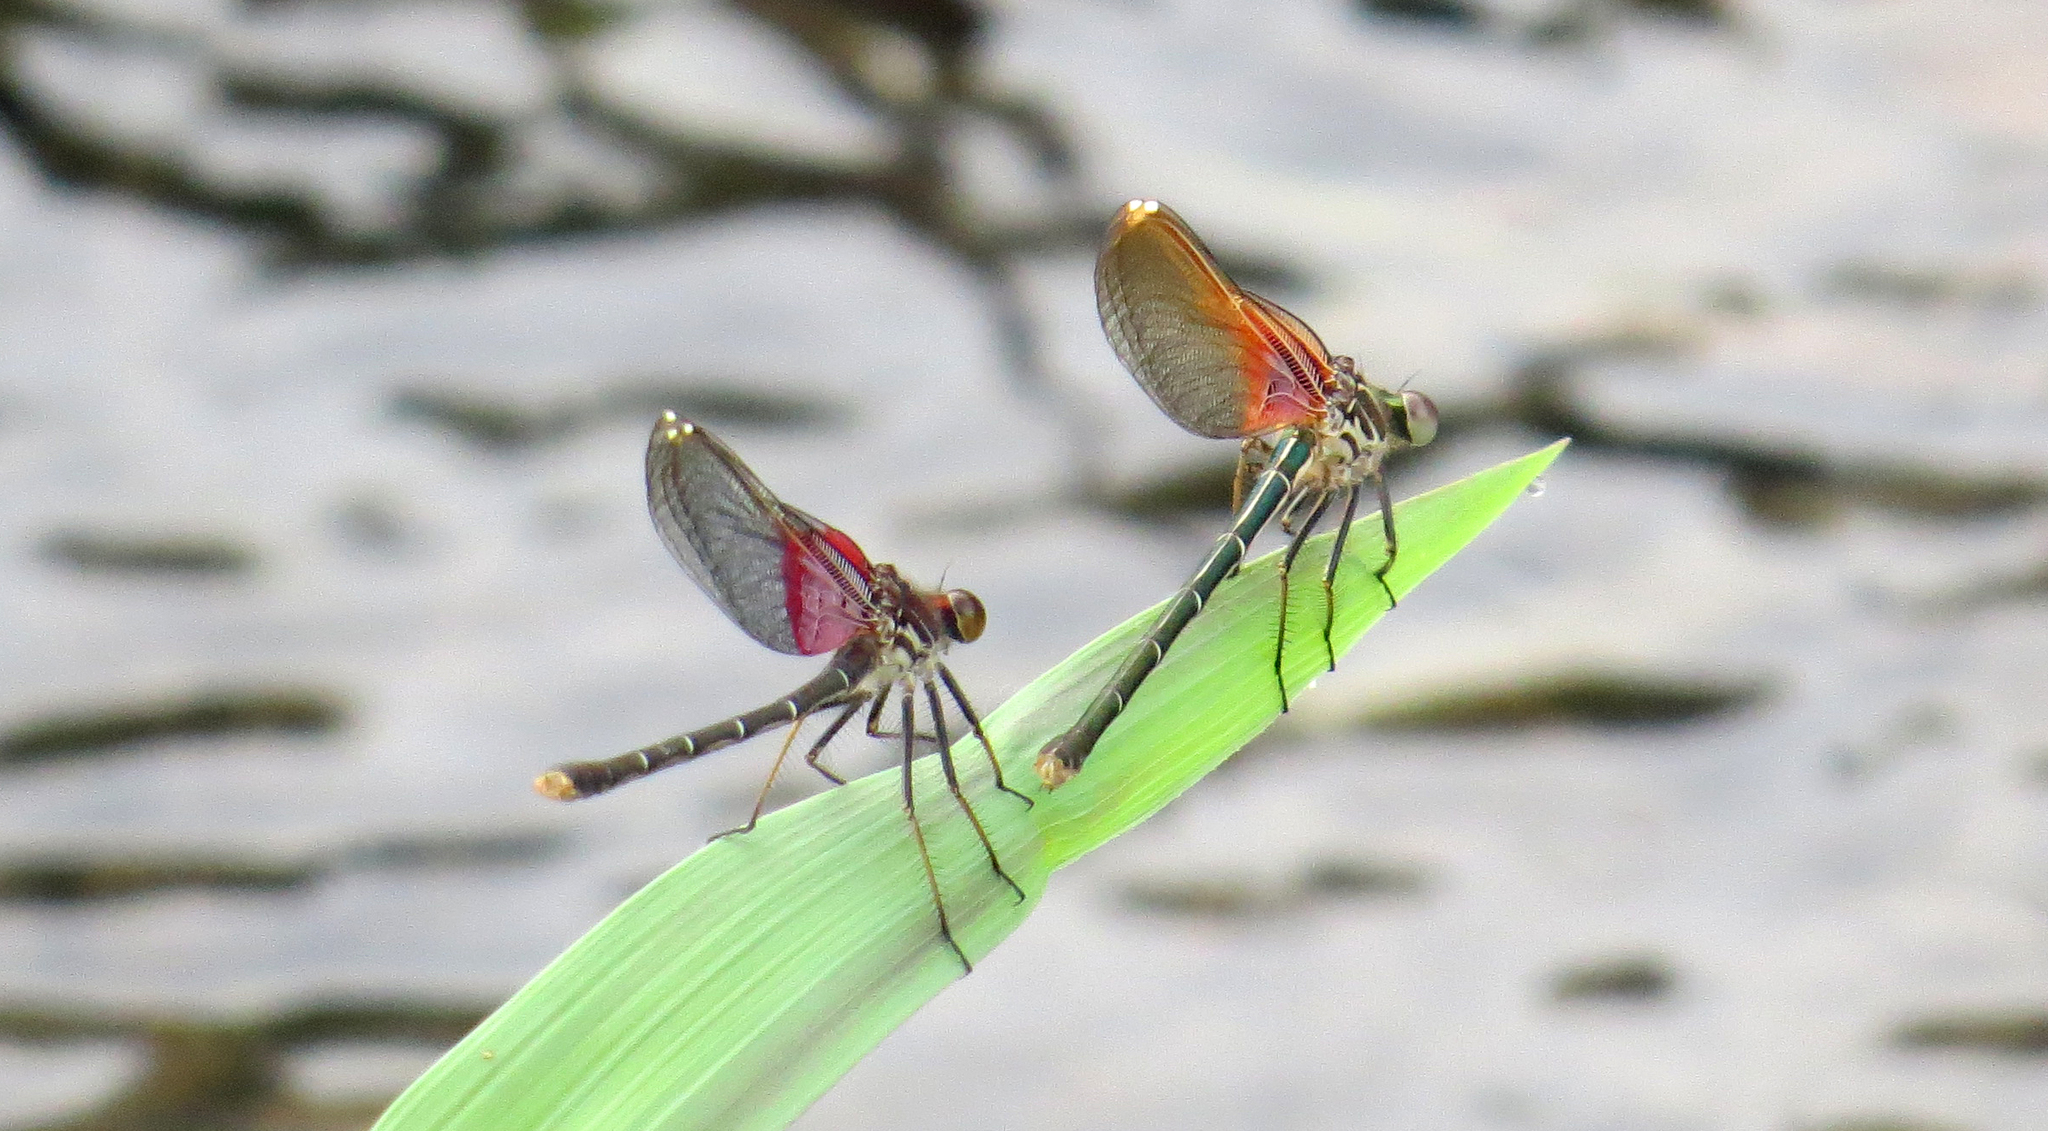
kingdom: Animalia
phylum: Arthropoda
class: Insecta
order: Odonata
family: Calopterygidae
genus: Hetaerina
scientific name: Hetaerina americana
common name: American rubyspot
